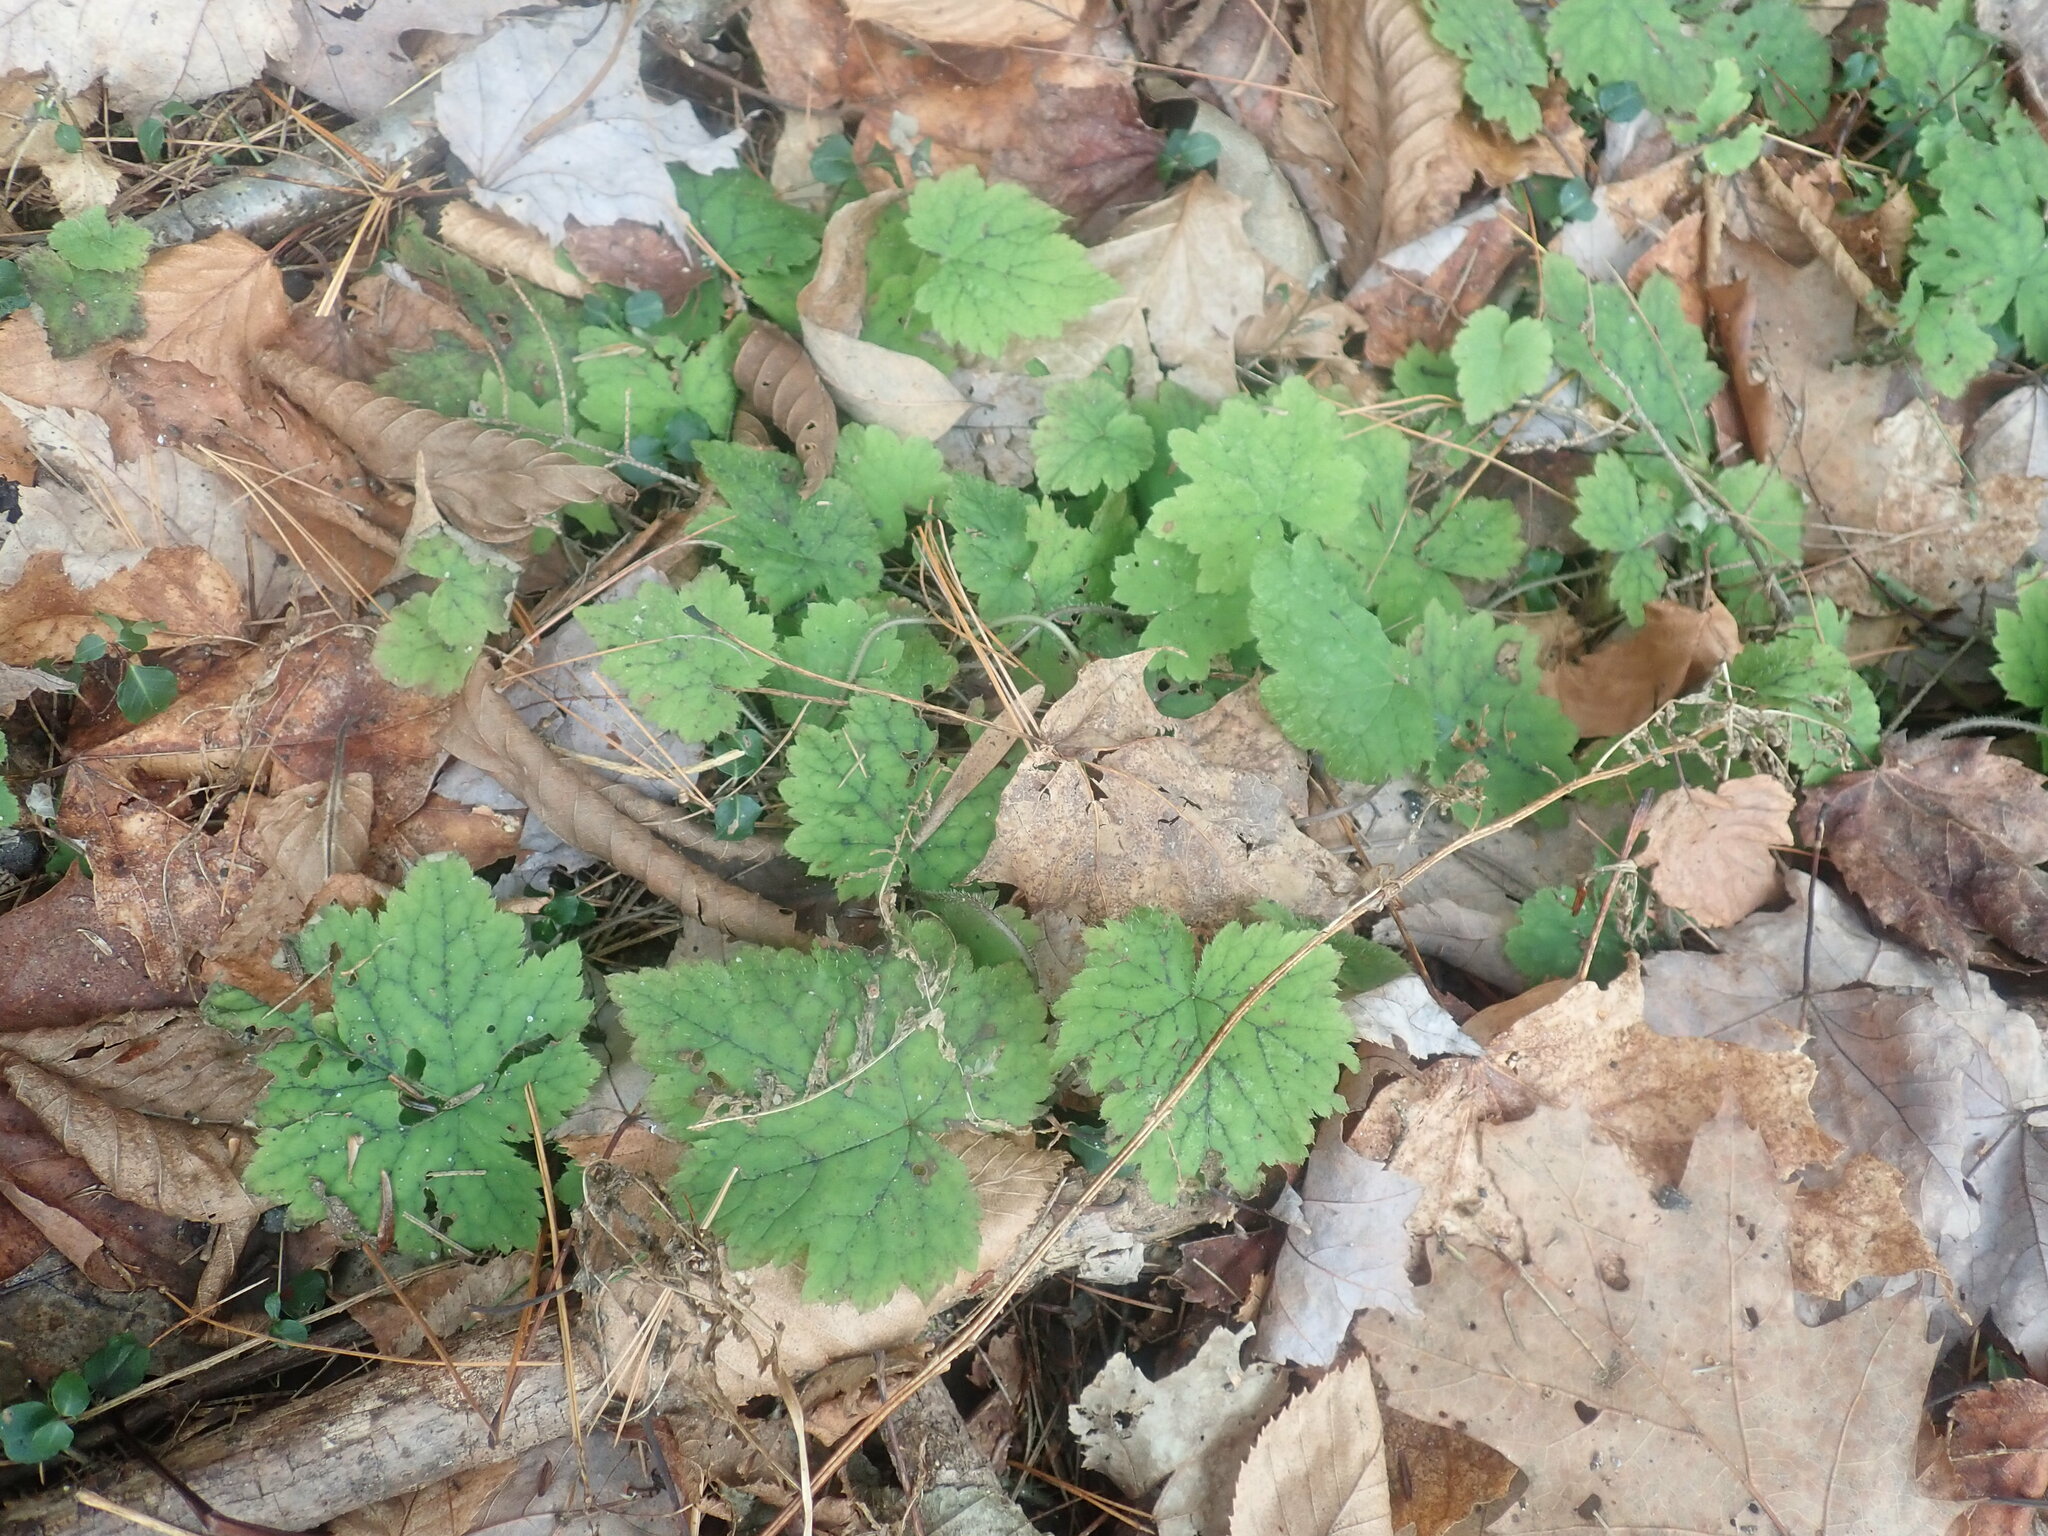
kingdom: Plantae
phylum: Tracheophyta
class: Magnoliopsida
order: Saxifragales
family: Saxifragaceae
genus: Tiarella
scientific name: Tiarella stolonifera
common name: Stoloniferous foamflower
